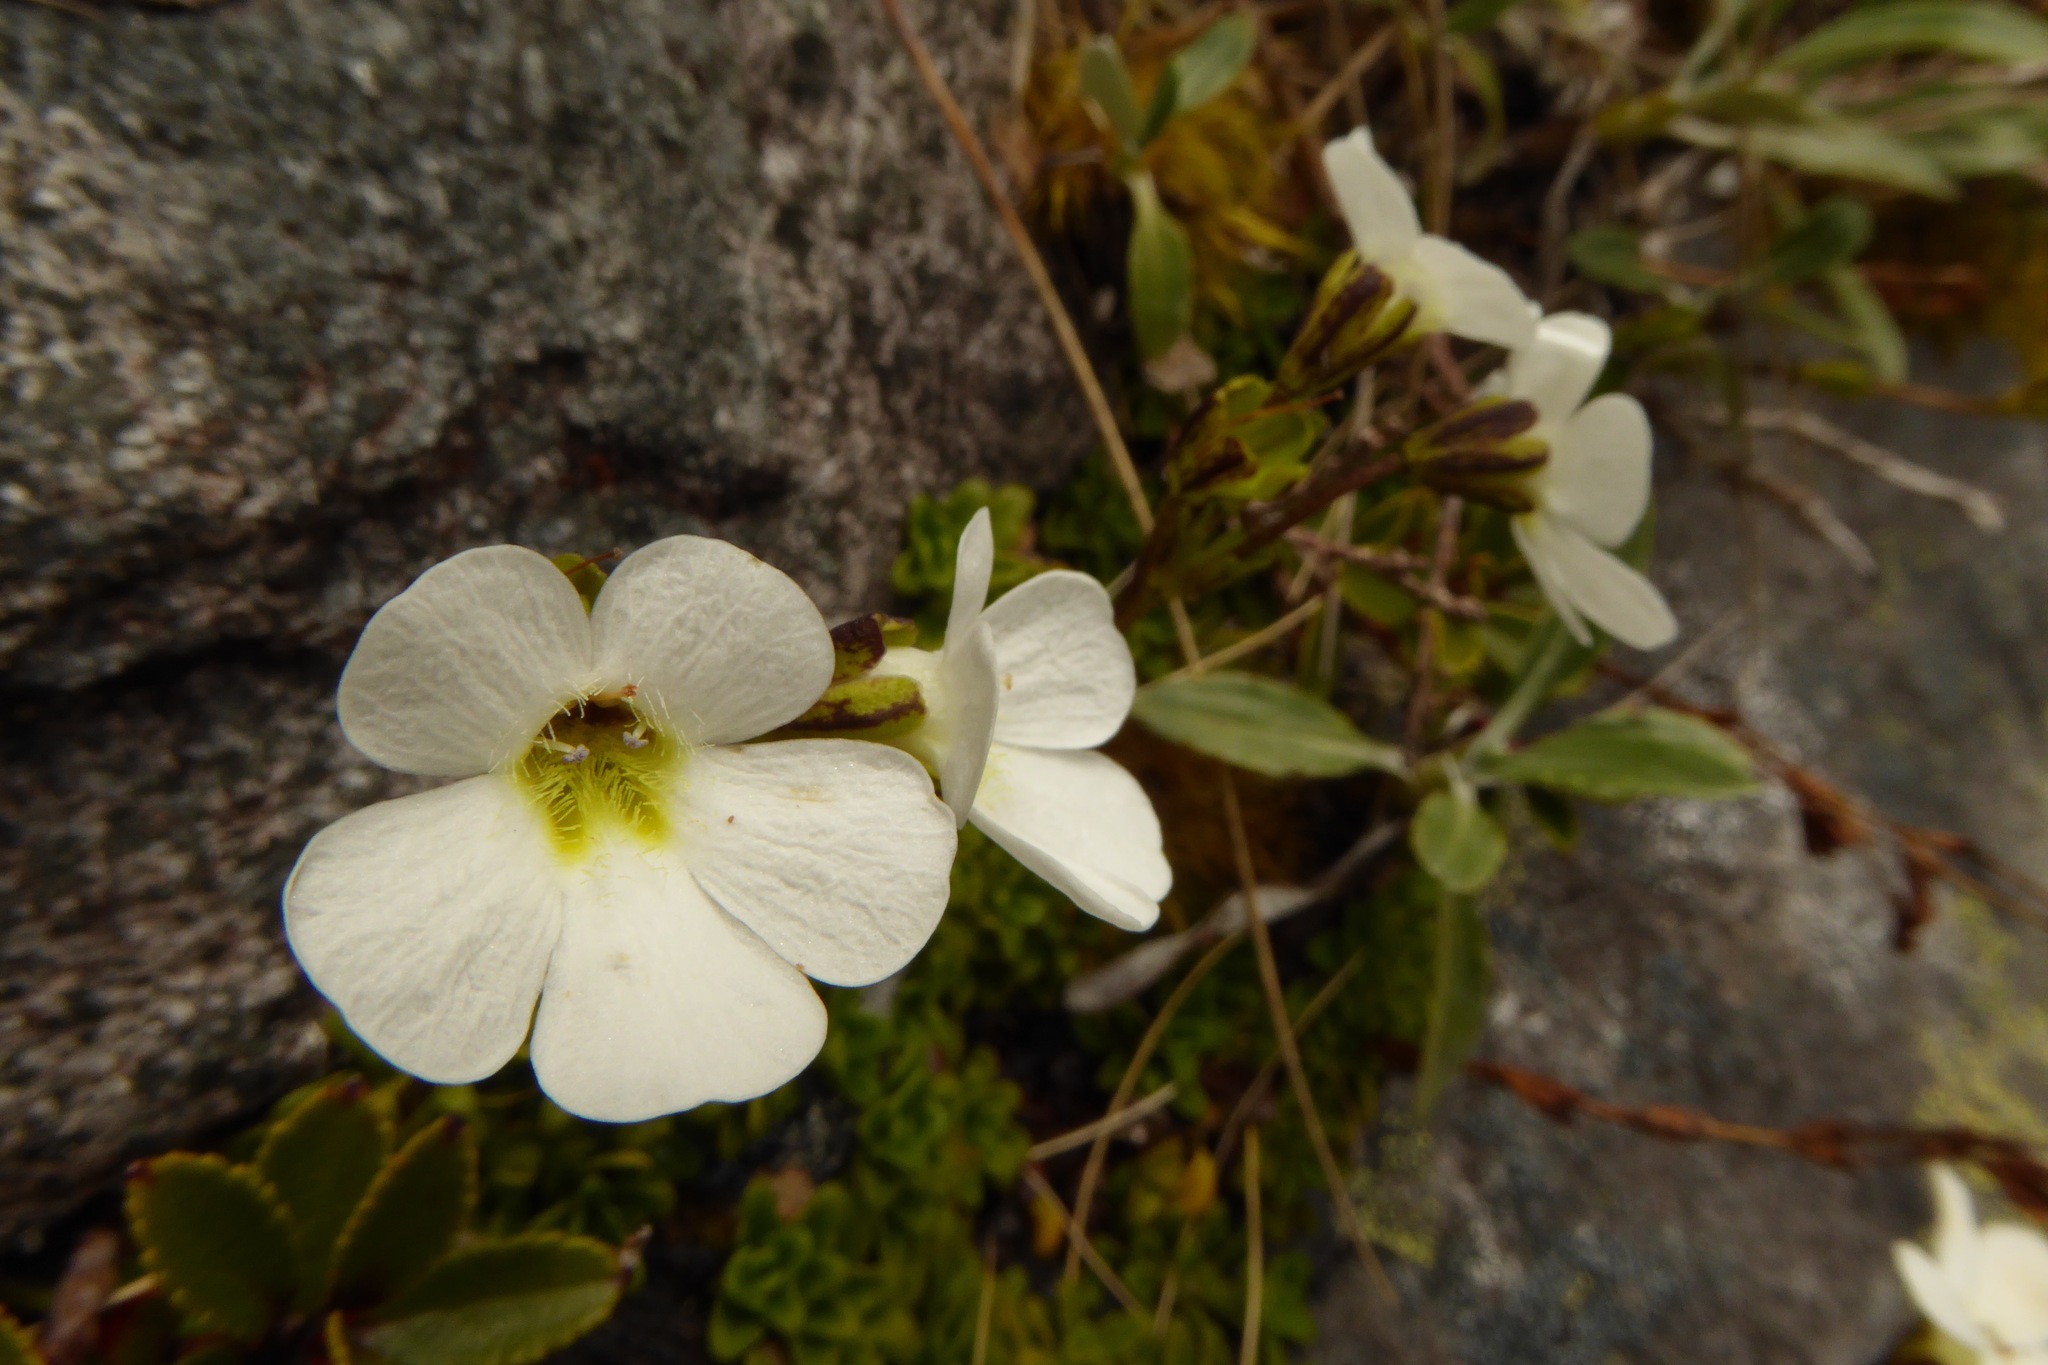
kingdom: Plantae
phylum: Tracheophyta
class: Magnoliopsida
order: Lamiales
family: Plantaginaceae
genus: Ourisia
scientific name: Ourisia caespitosa
